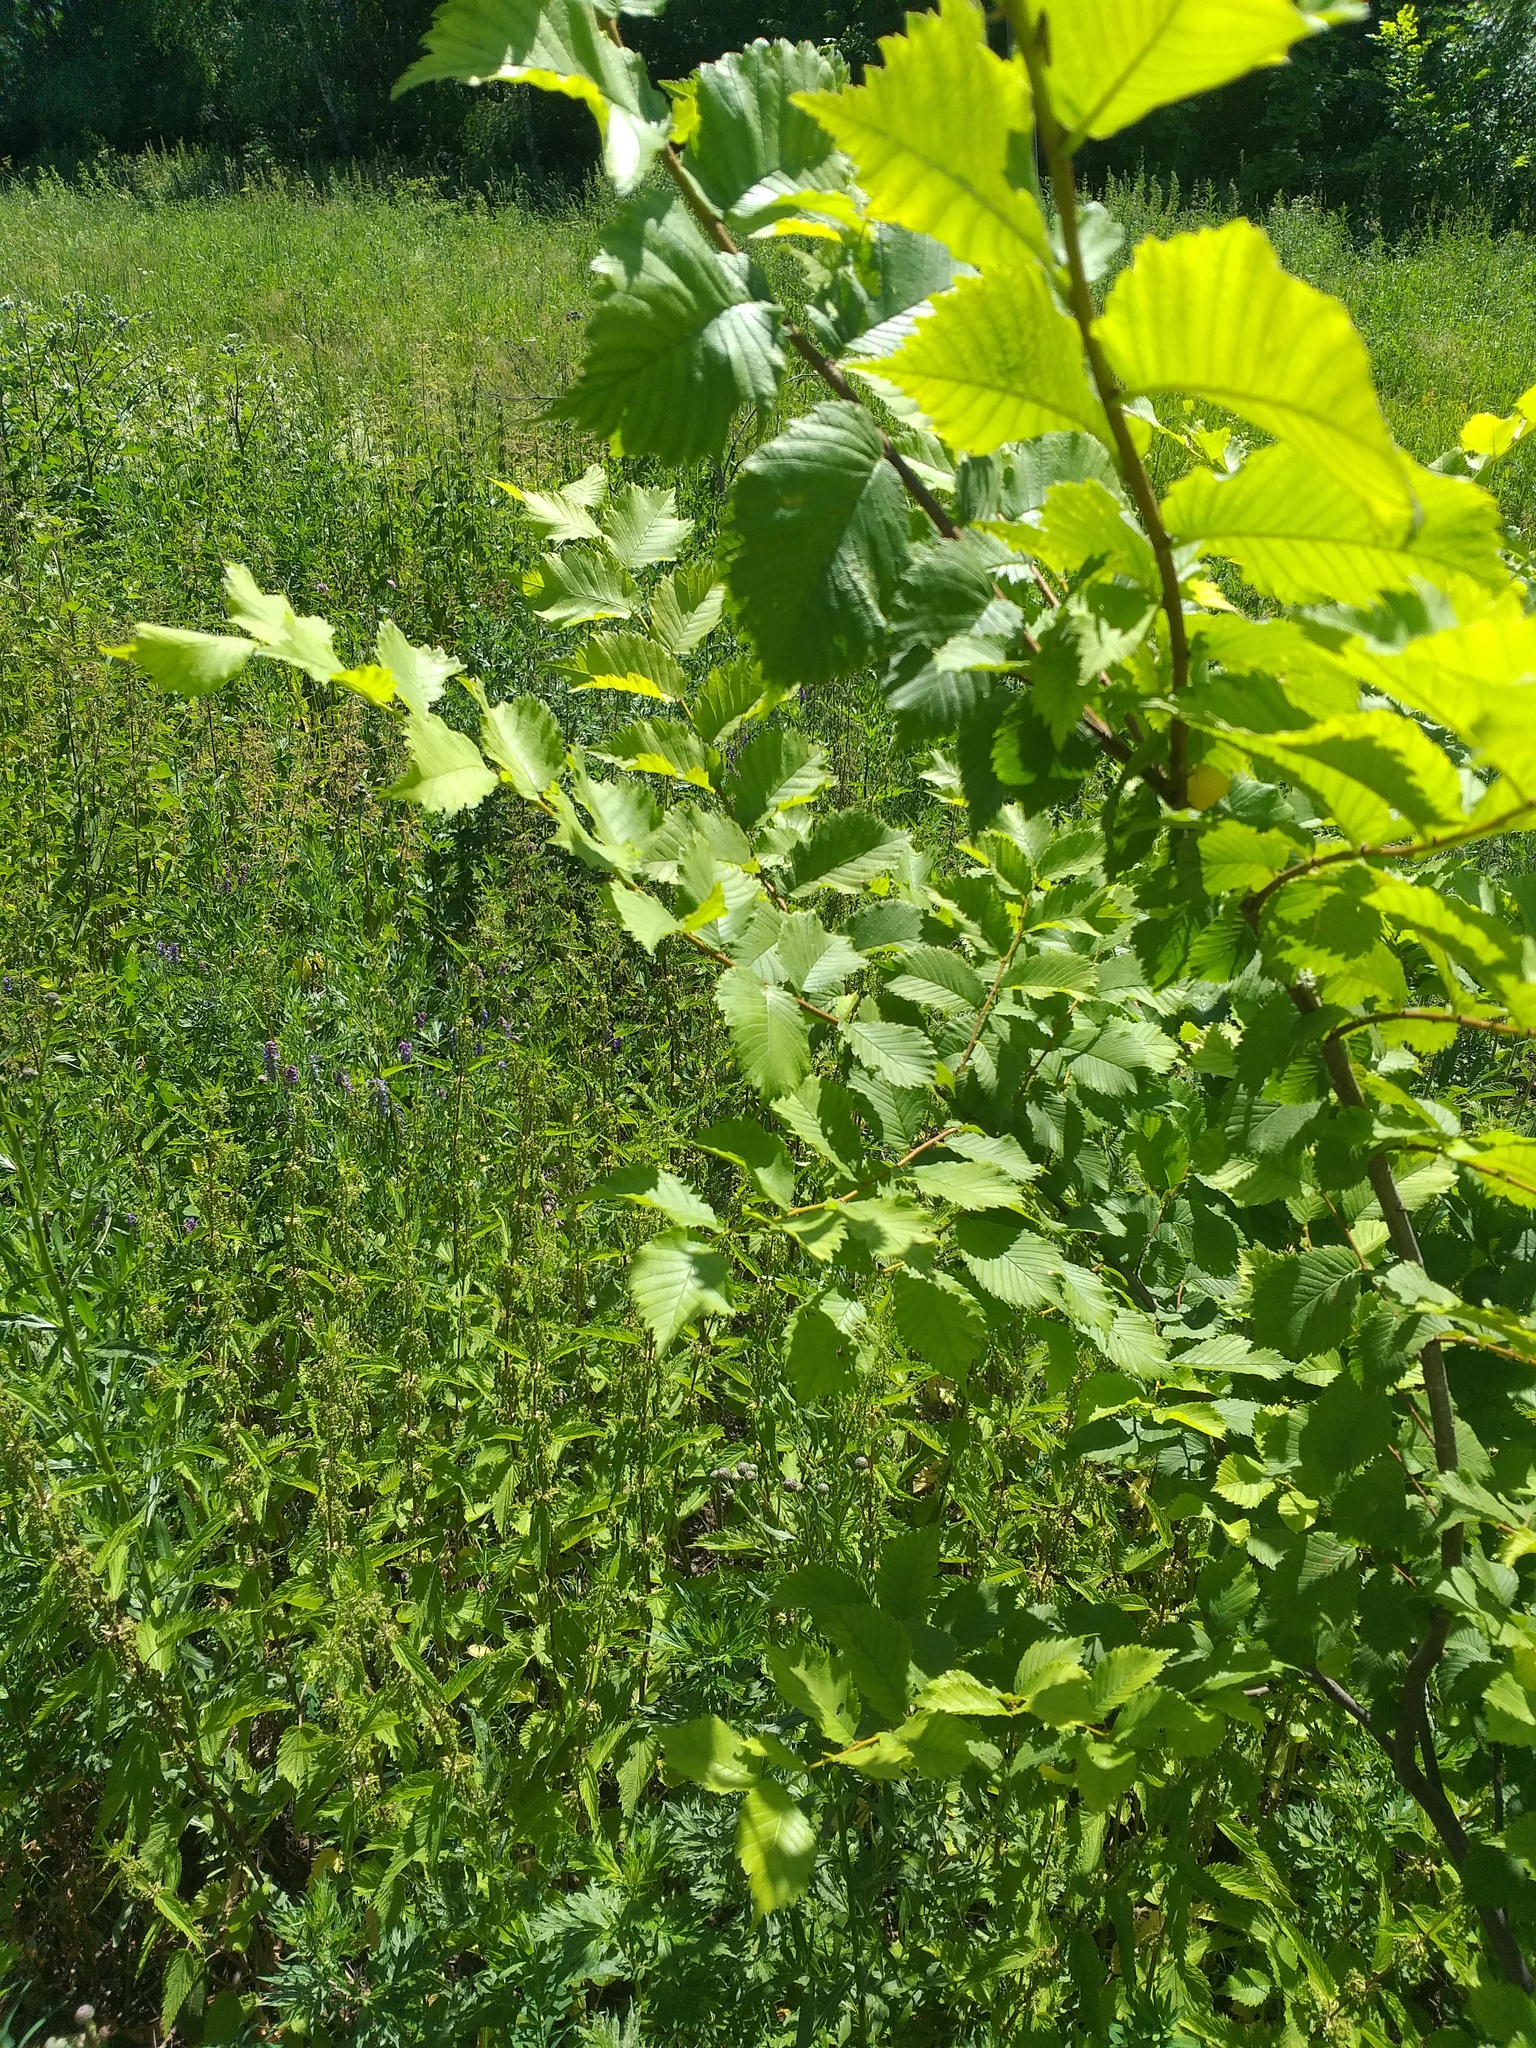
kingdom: Plantae
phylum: Tracheophyta
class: Magnoliopsida
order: Rosales
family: Ulmaceae
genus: Ulmus
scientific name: Ulmus laevis
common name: European white-elm
